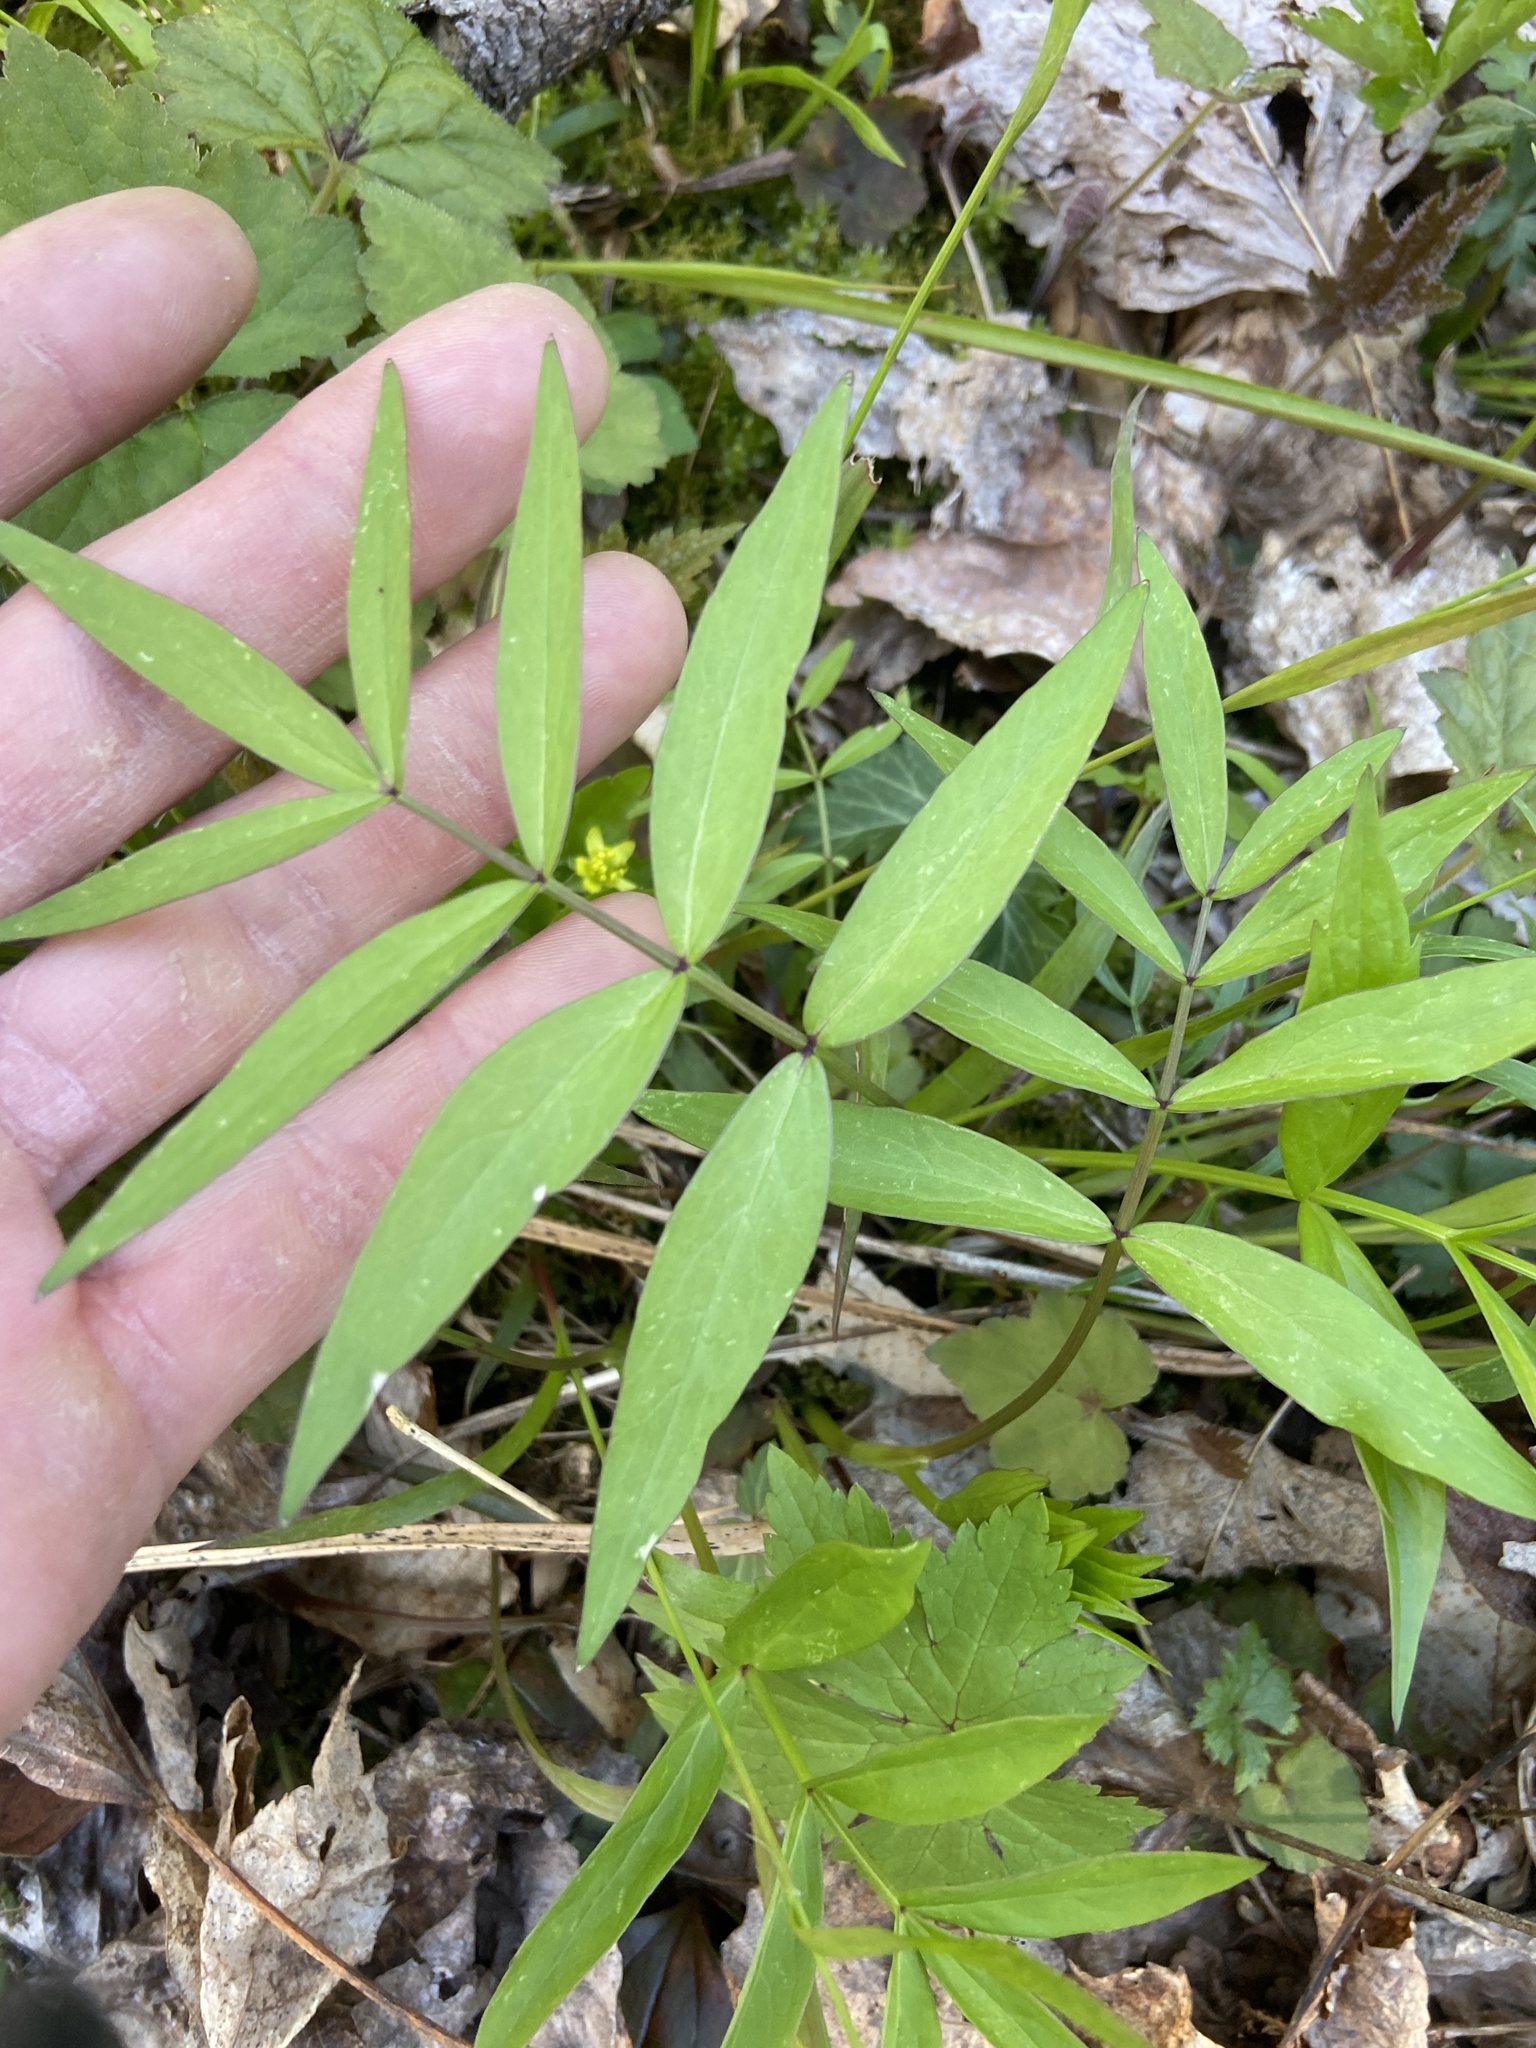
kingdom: Plantae
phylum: Tracheophyta
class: Magnoliopsida
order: Apiales
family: Apiaceae
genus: Oxypolis
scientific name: Oxypolis rigidior
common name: Cowbane
